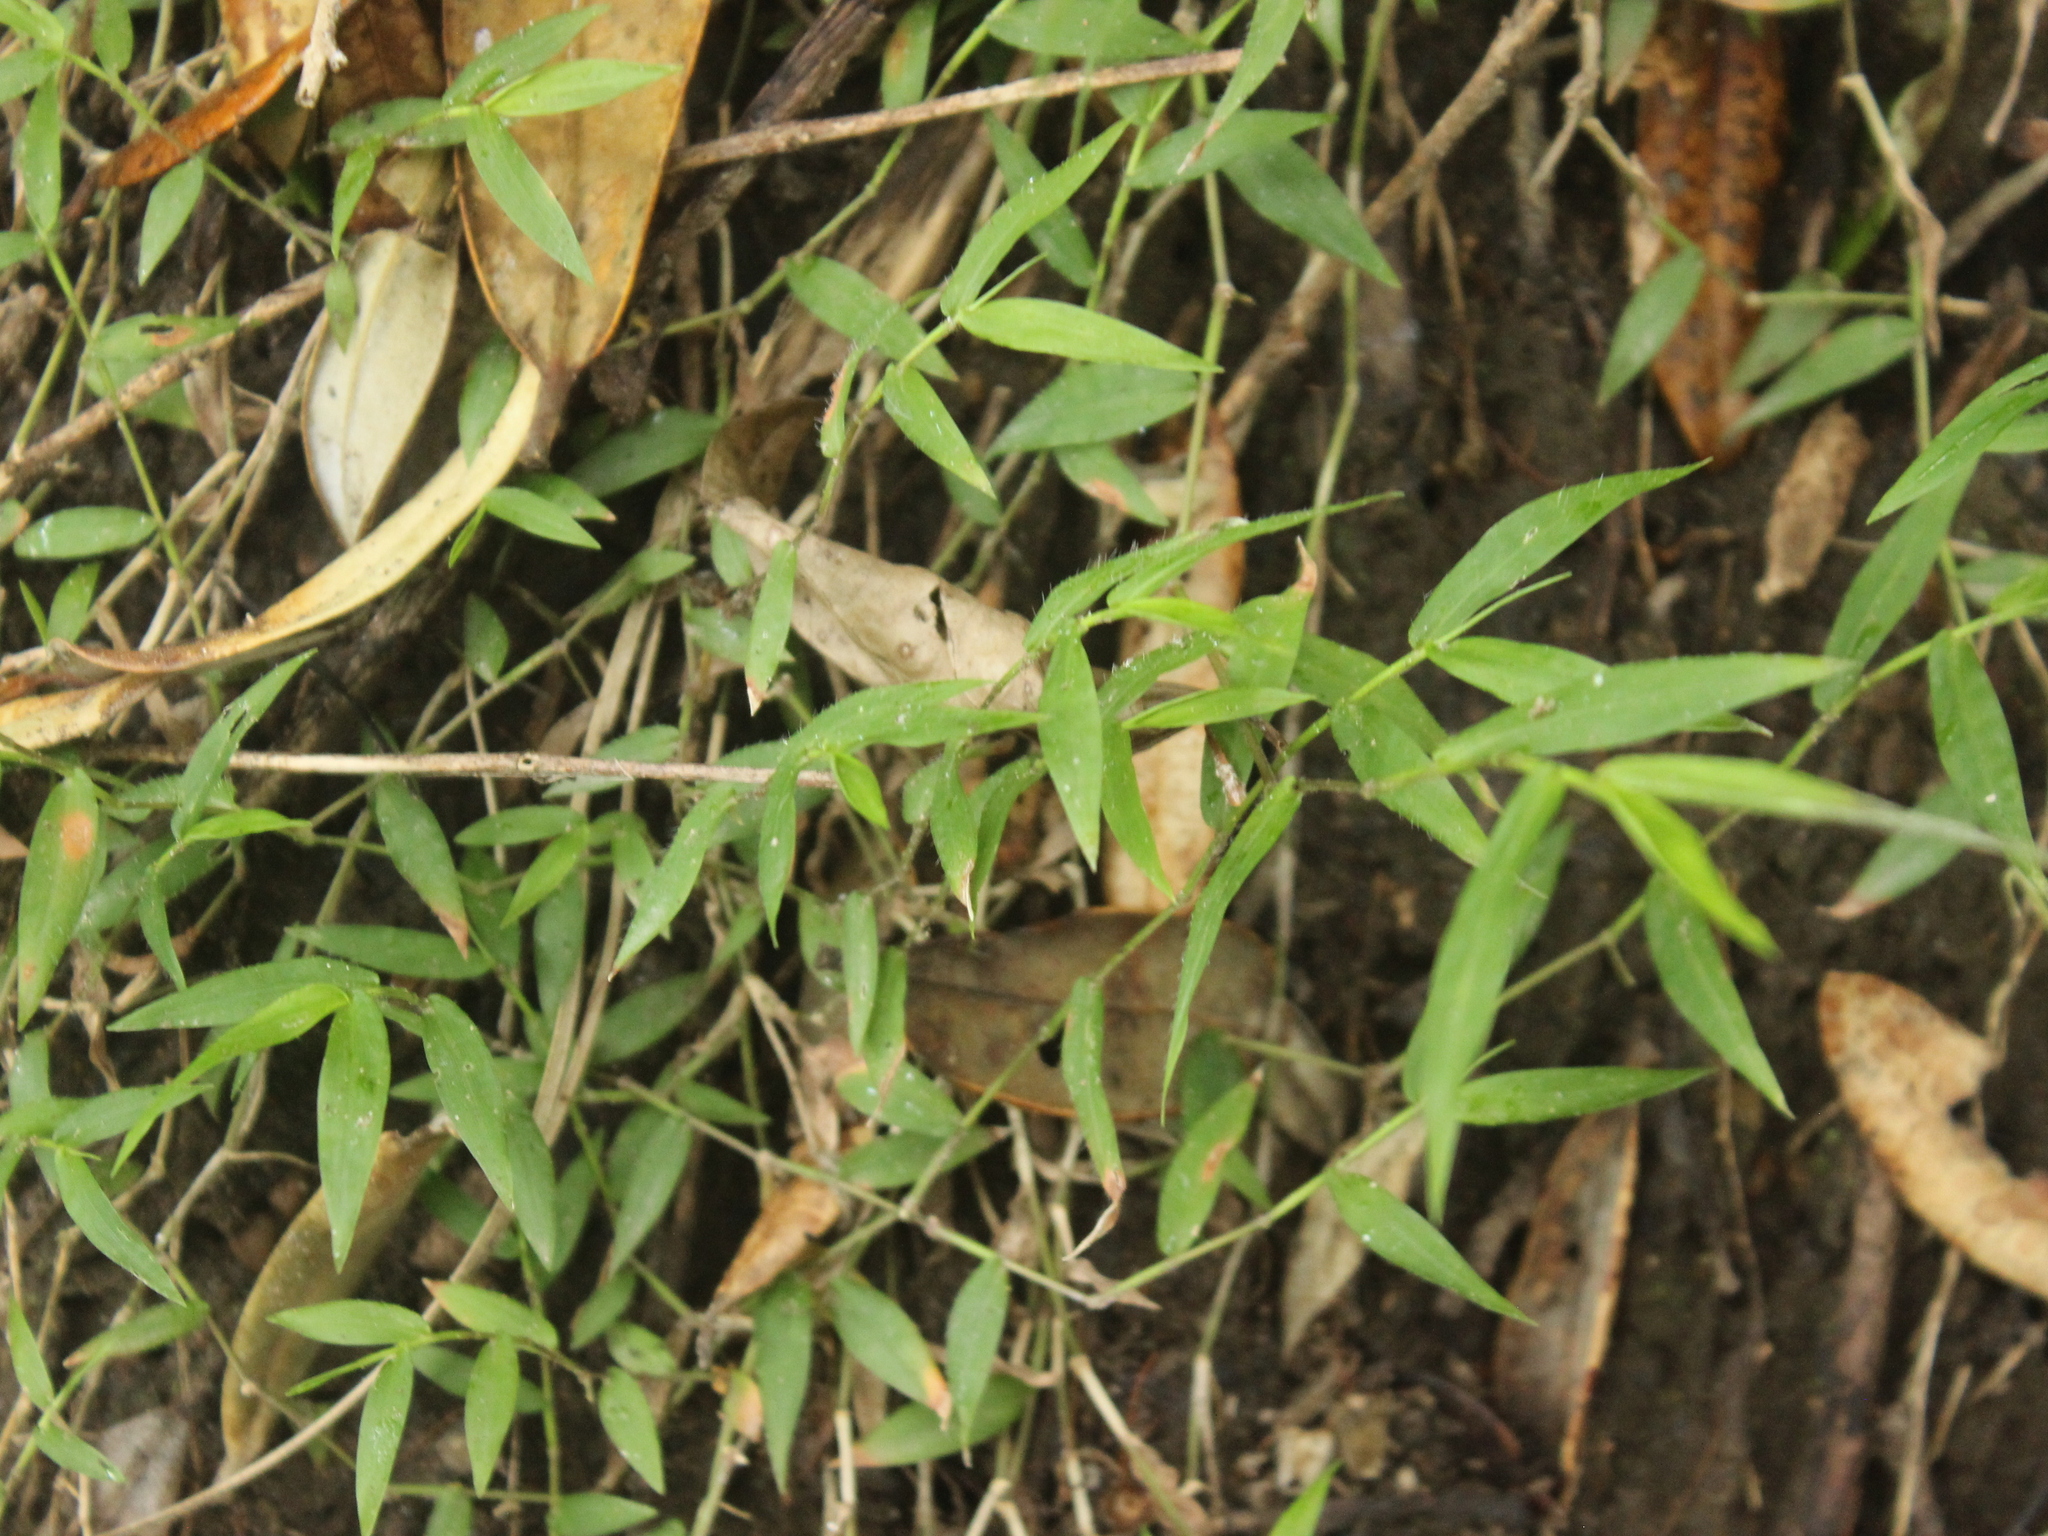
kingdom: Plantae
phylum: Tracheophyta
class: Liliopsida
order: Poales
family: Poaceae
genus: Oplismenus
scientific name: Oplismenus hirtellus
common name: Basketgrass
